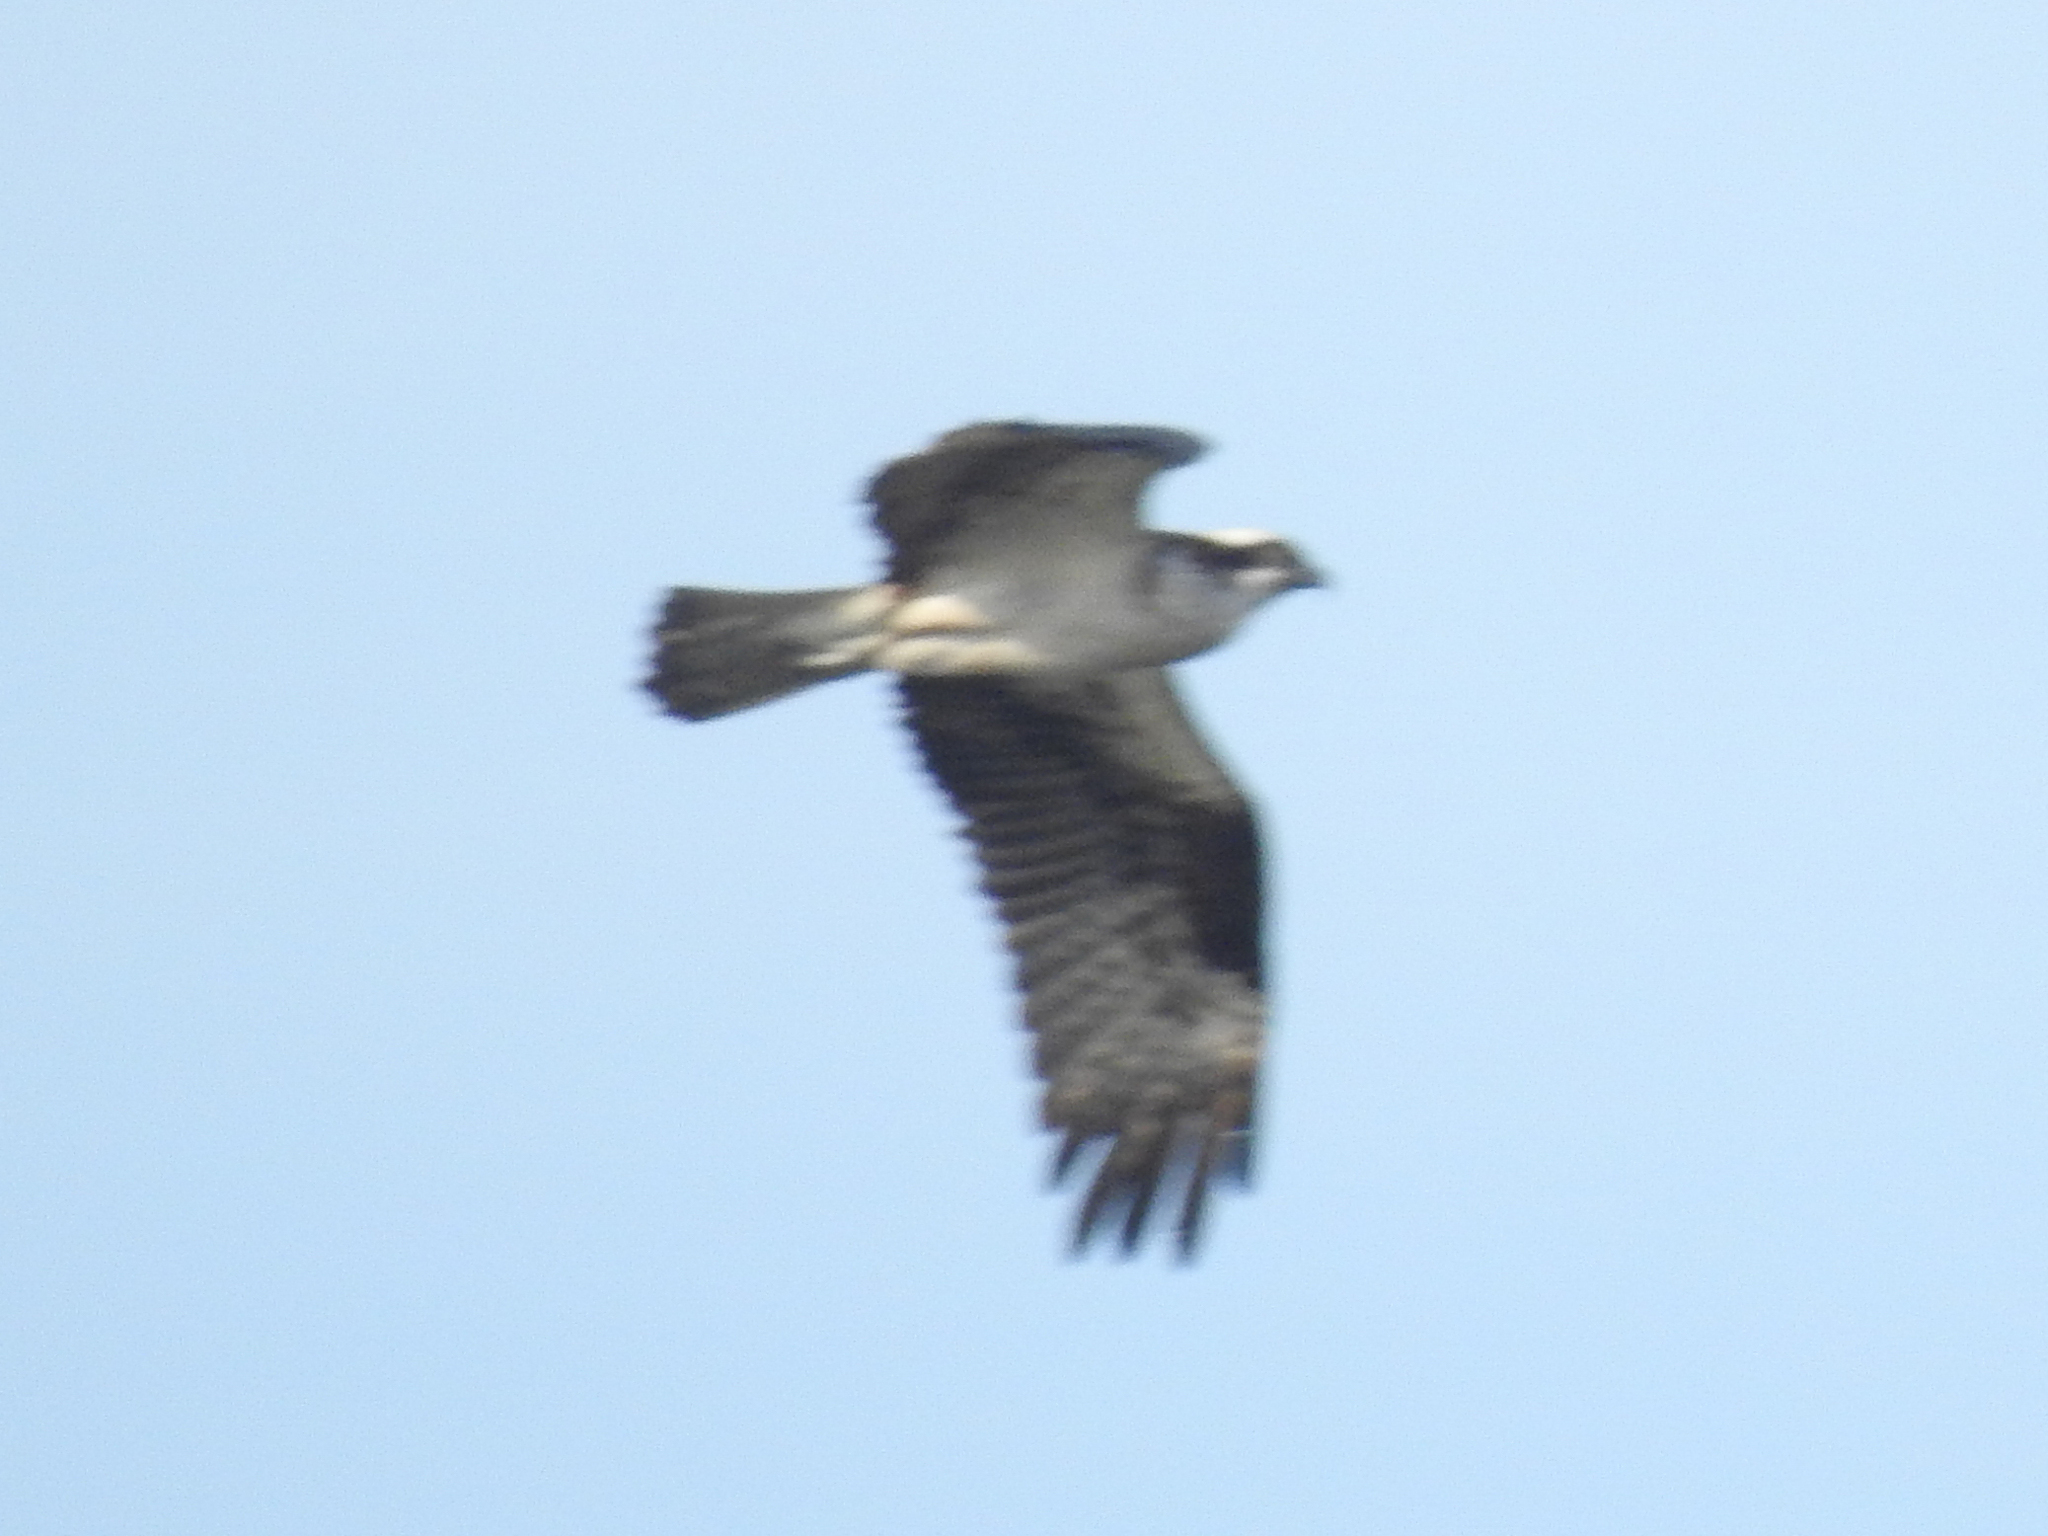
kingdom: Animalia
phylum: Chordata
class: Aves
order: Accipitriformes
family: Pandionidae
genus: Pandion
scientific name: Pandion haliaetus
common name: Osprey
